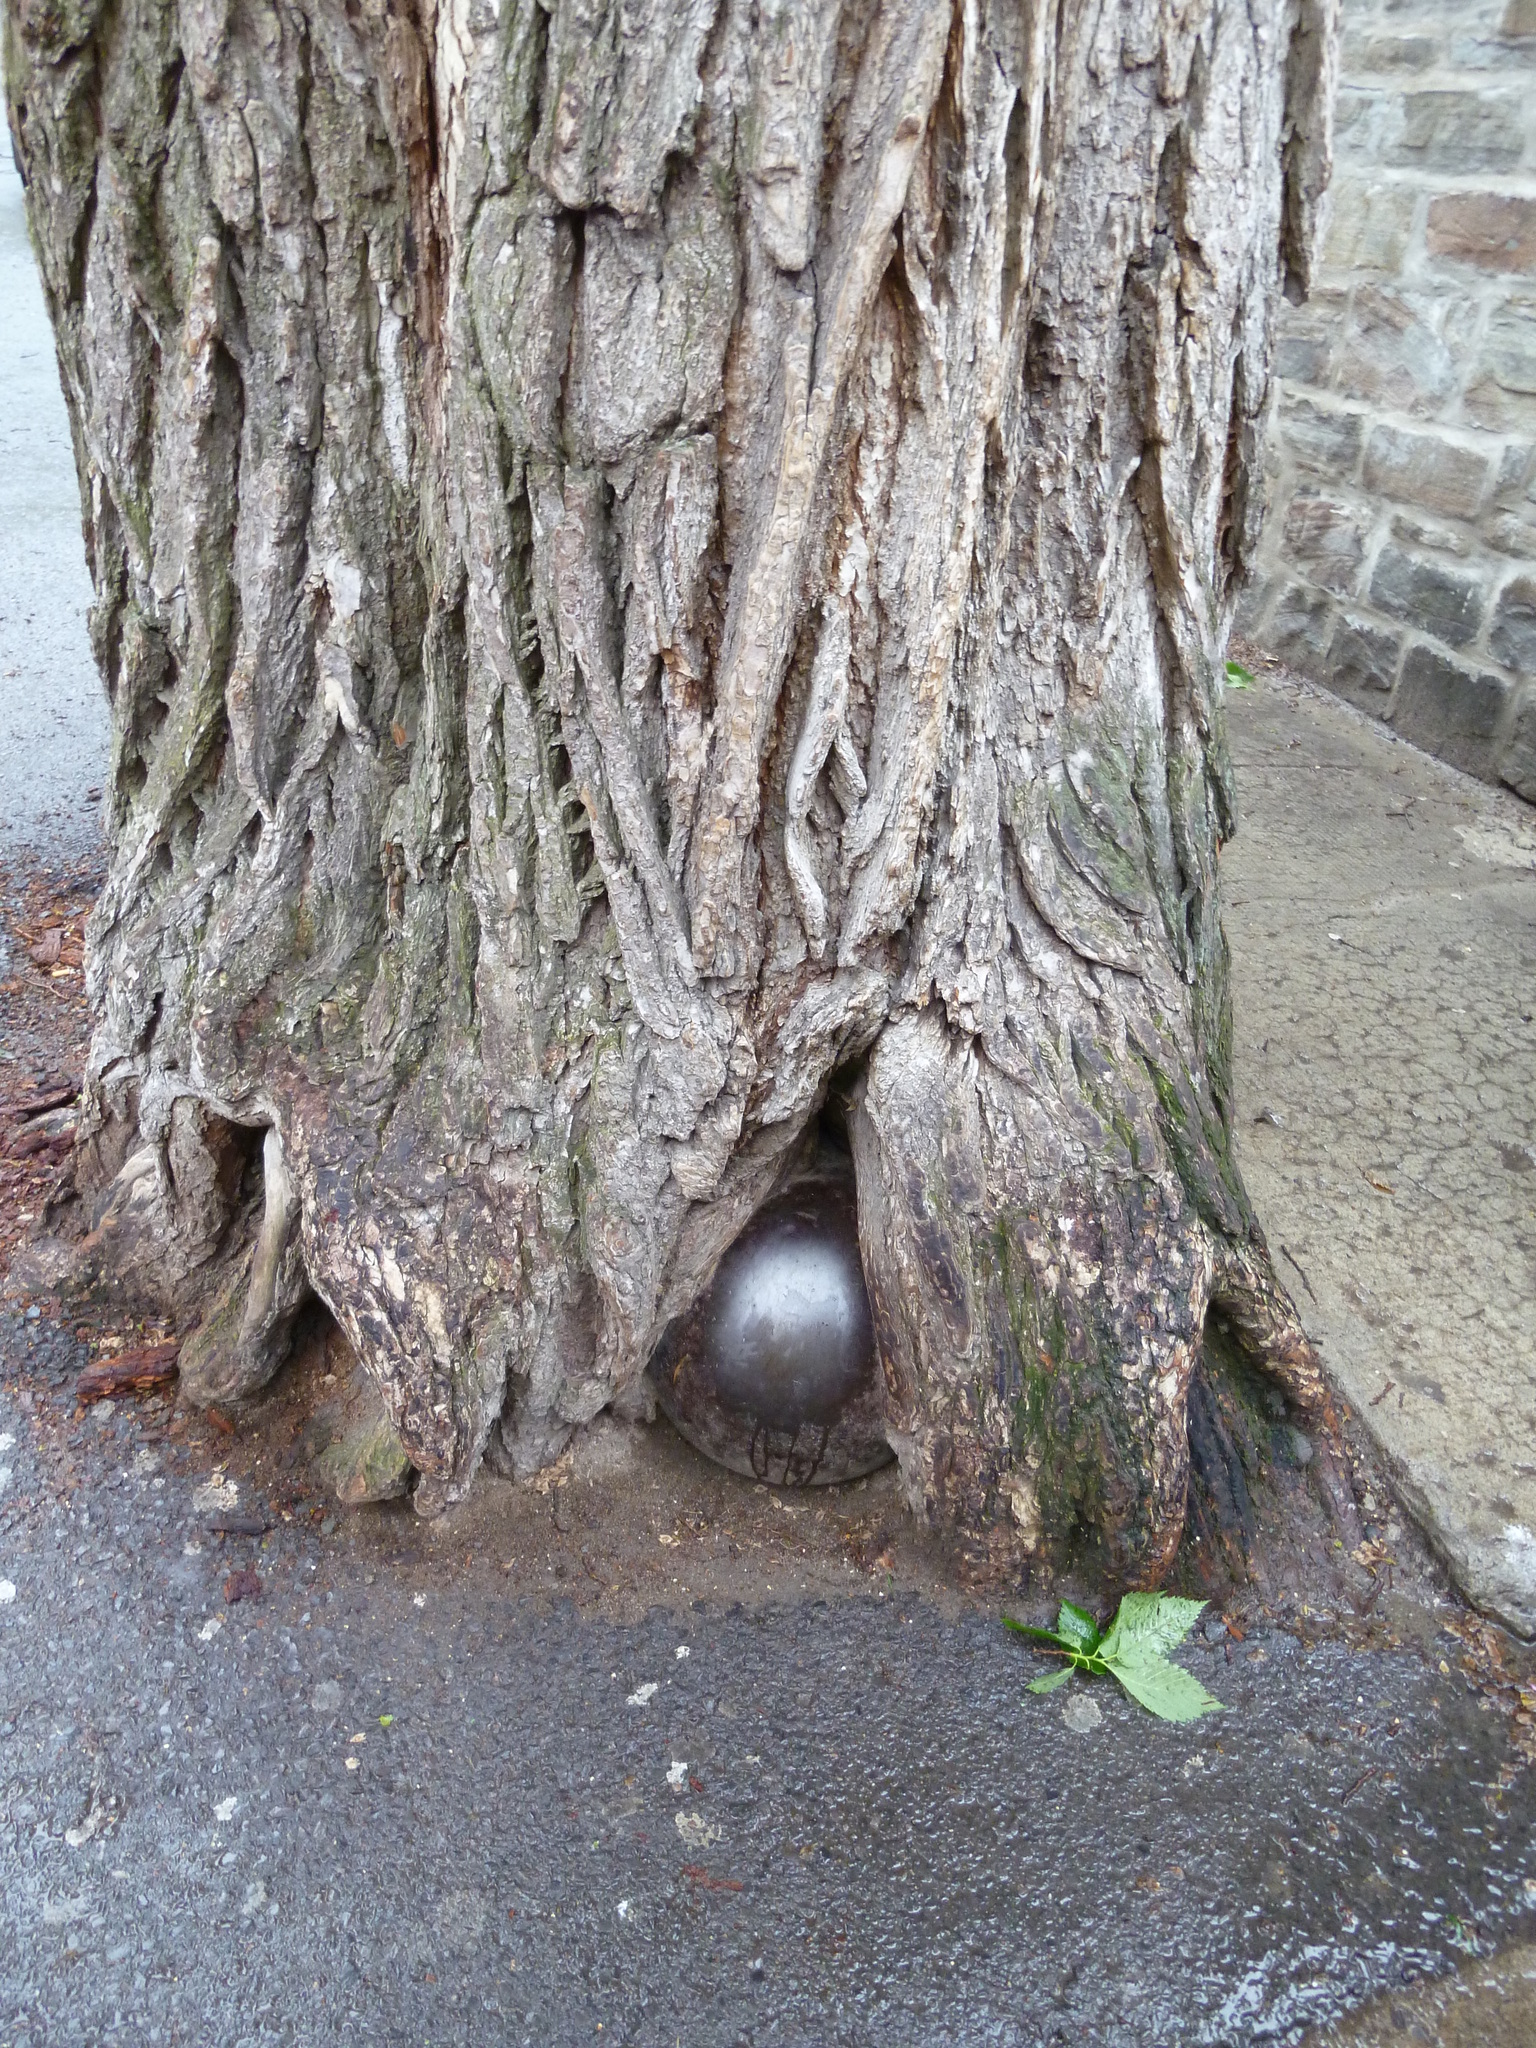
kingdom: Plantae
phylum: Tracheophyta
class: Magnoliopsida
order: Rosales
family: Ulmaceae
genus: Ulmus
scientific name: Ulmus americana
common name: American elm
